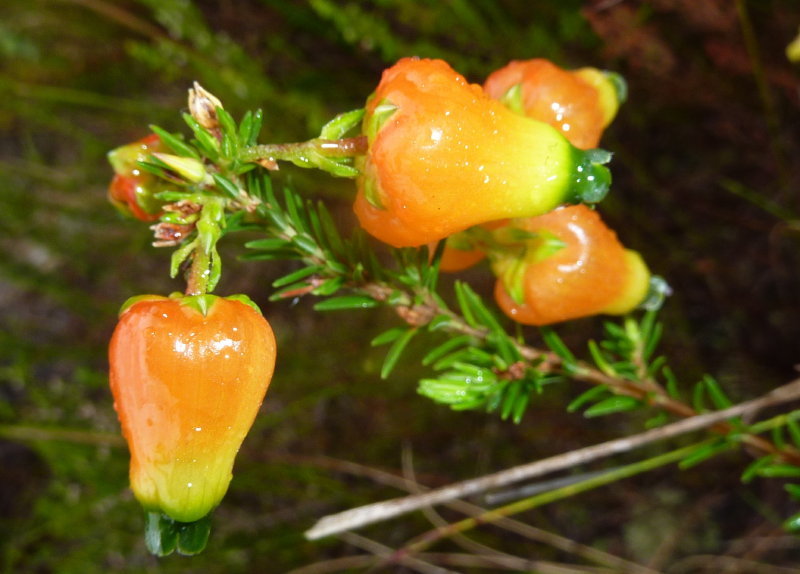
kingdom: Plantae
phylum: Tracheophyta
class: Magnoliopsida
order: Ericales
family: Ericaceae
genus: Erica
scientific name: Erica blenna
